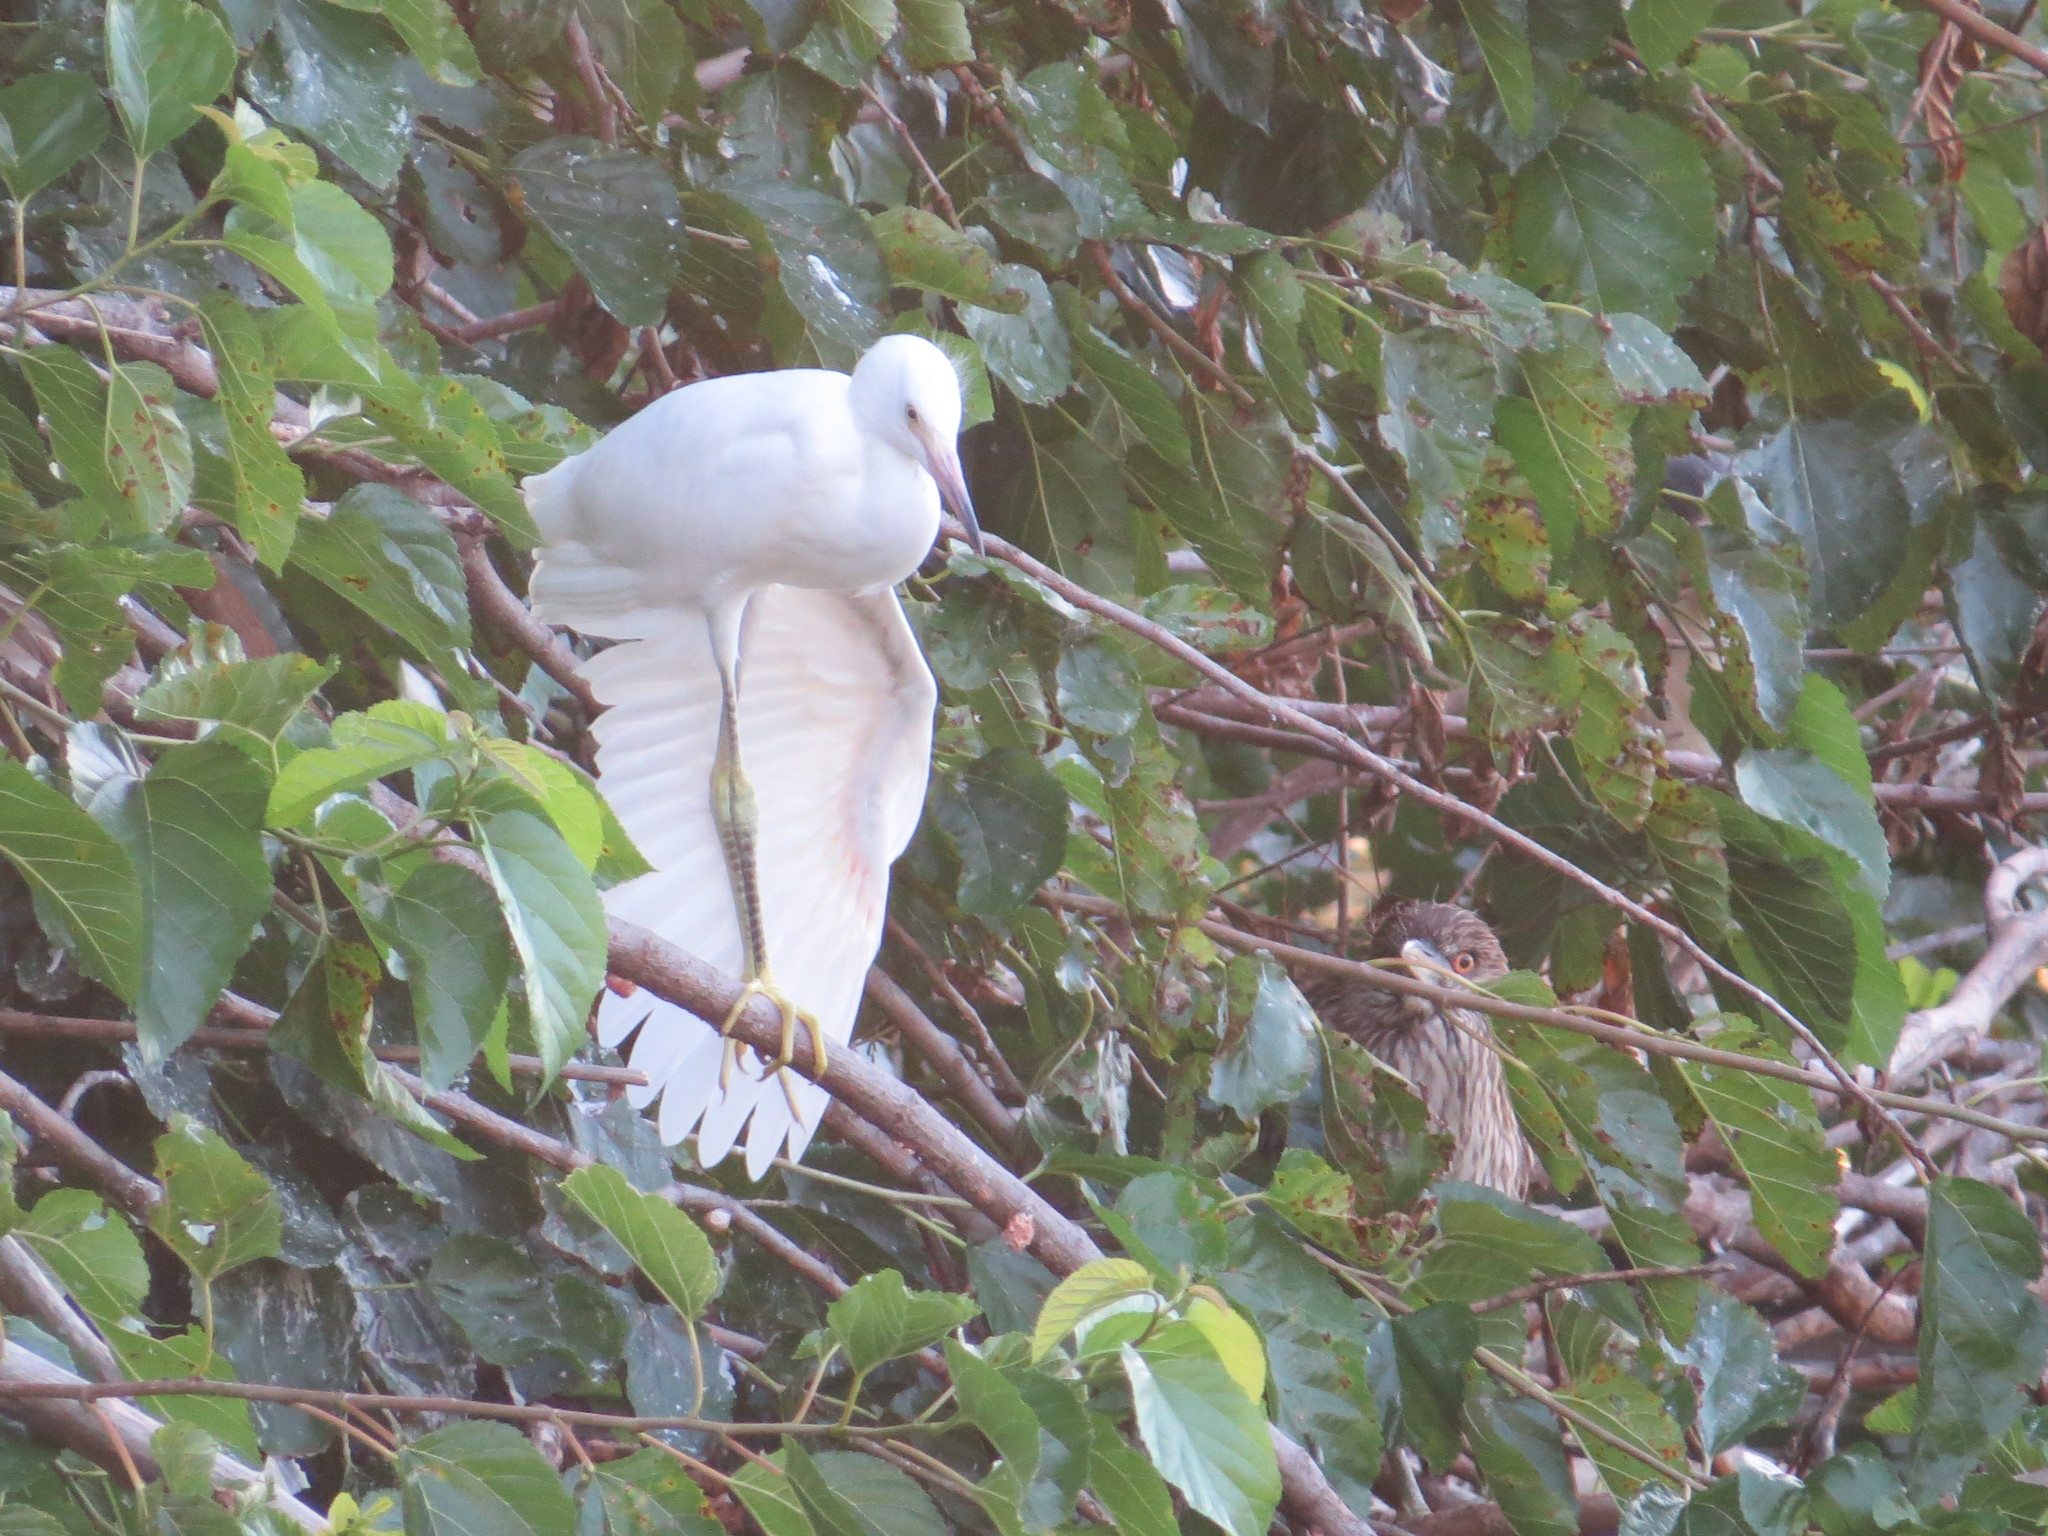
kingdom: Animalia
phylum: Chordata
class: Aves
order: Pelecaniformes
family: Ardeidae
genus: Egretta
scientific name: Egretta thula
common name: Snowy egret
